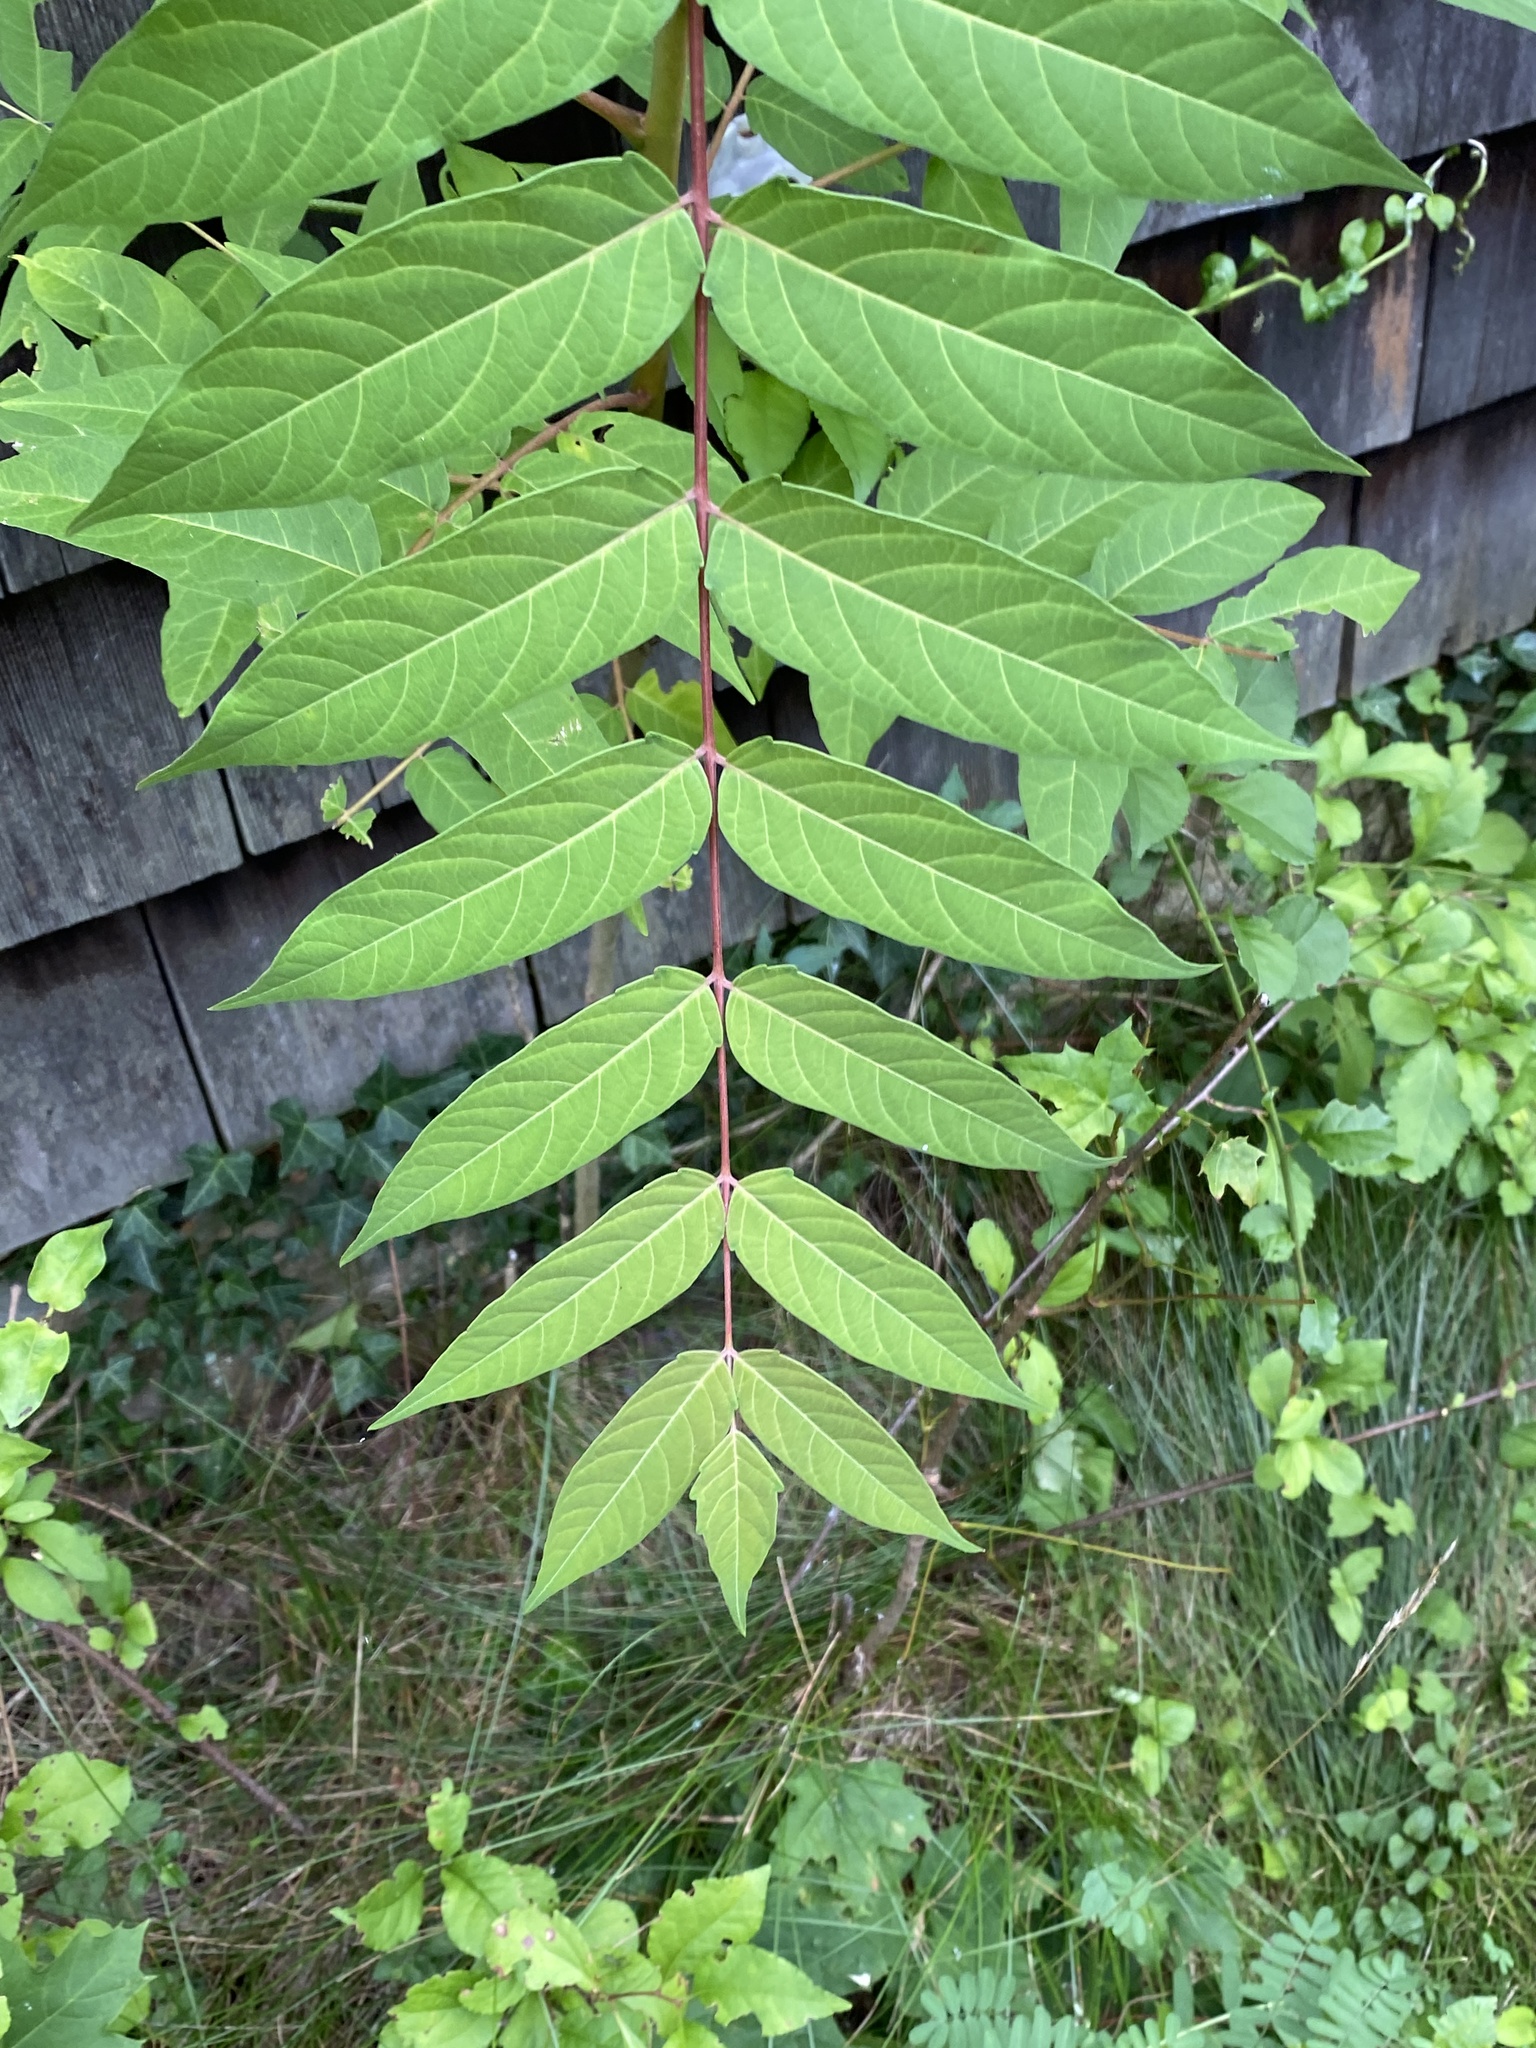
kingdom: Plantae
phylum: Tracheophyta
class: Magnoliopsida
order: Sapindales
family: Simaroubaceae
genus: Ailanthus
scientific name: Ailanthus altissima
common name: Tree-of-heaven
